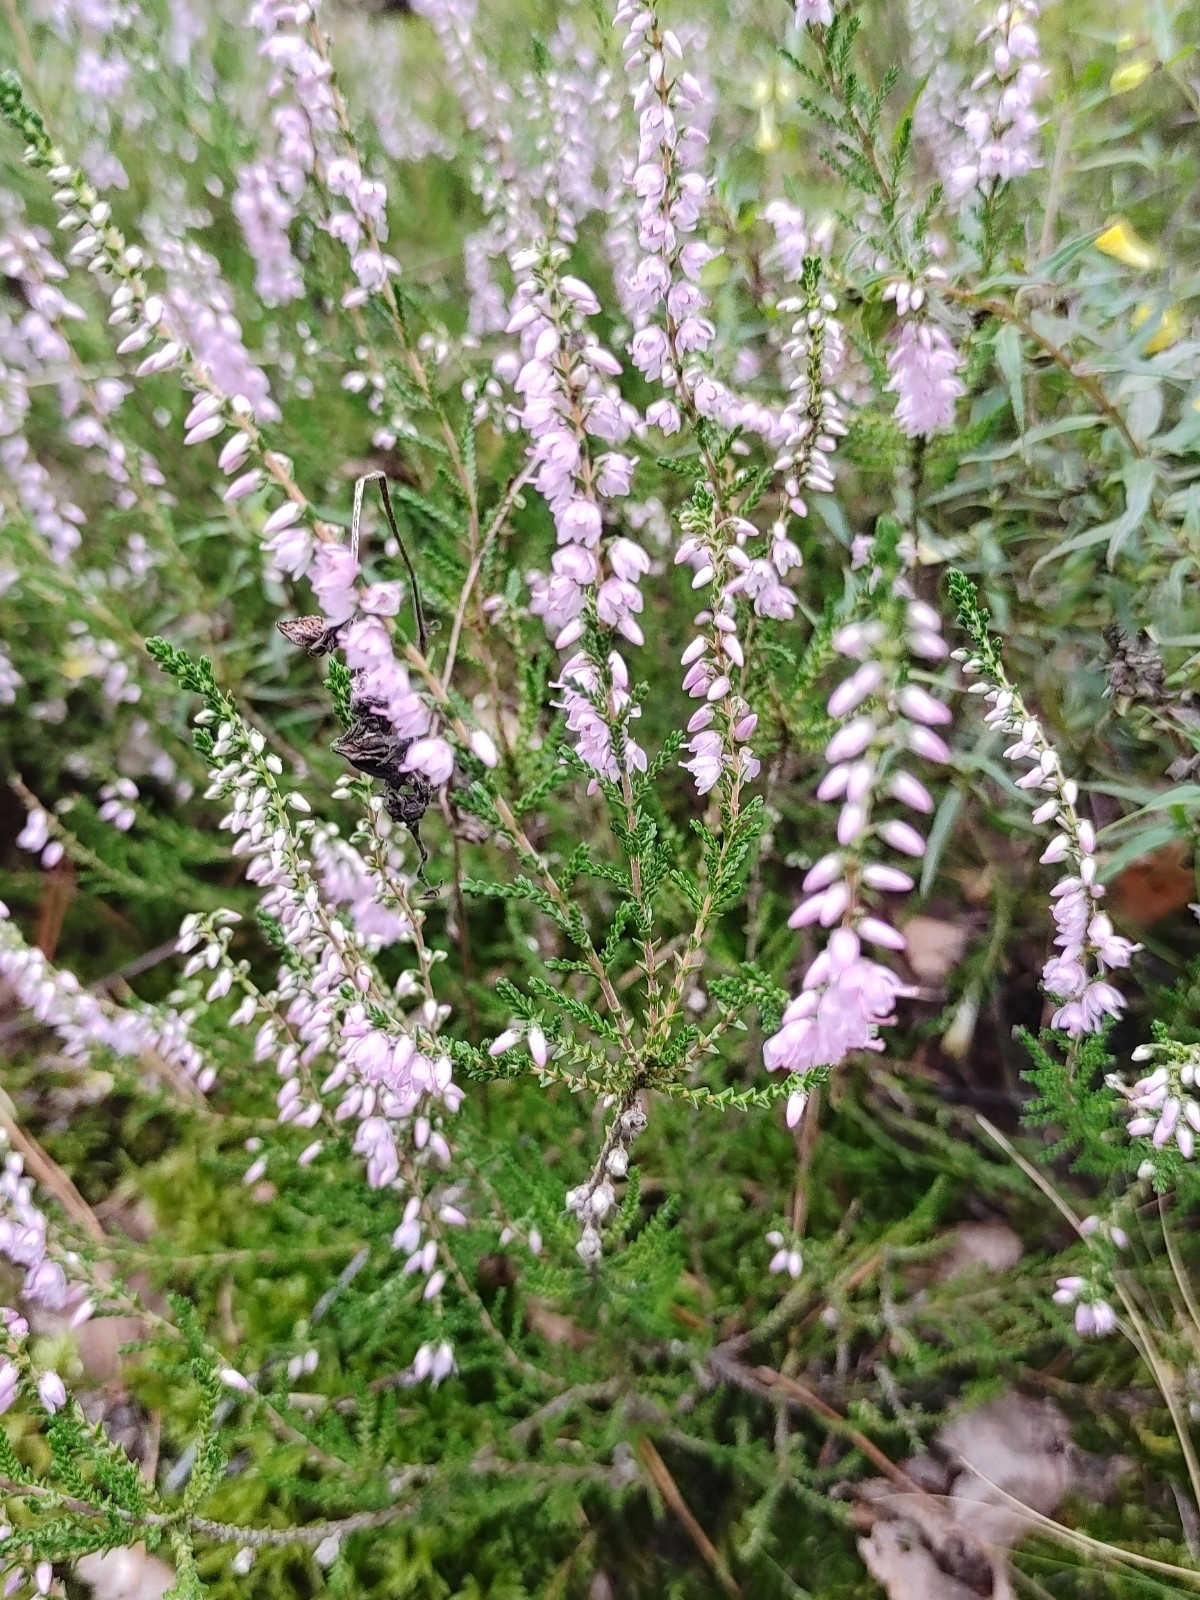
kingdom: Plantae
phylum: Tracheophyta
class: Magnoliopsida
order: Ericales
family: Ericaceae
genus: Calluna
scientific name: Calluna vulgaris
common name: Heather
